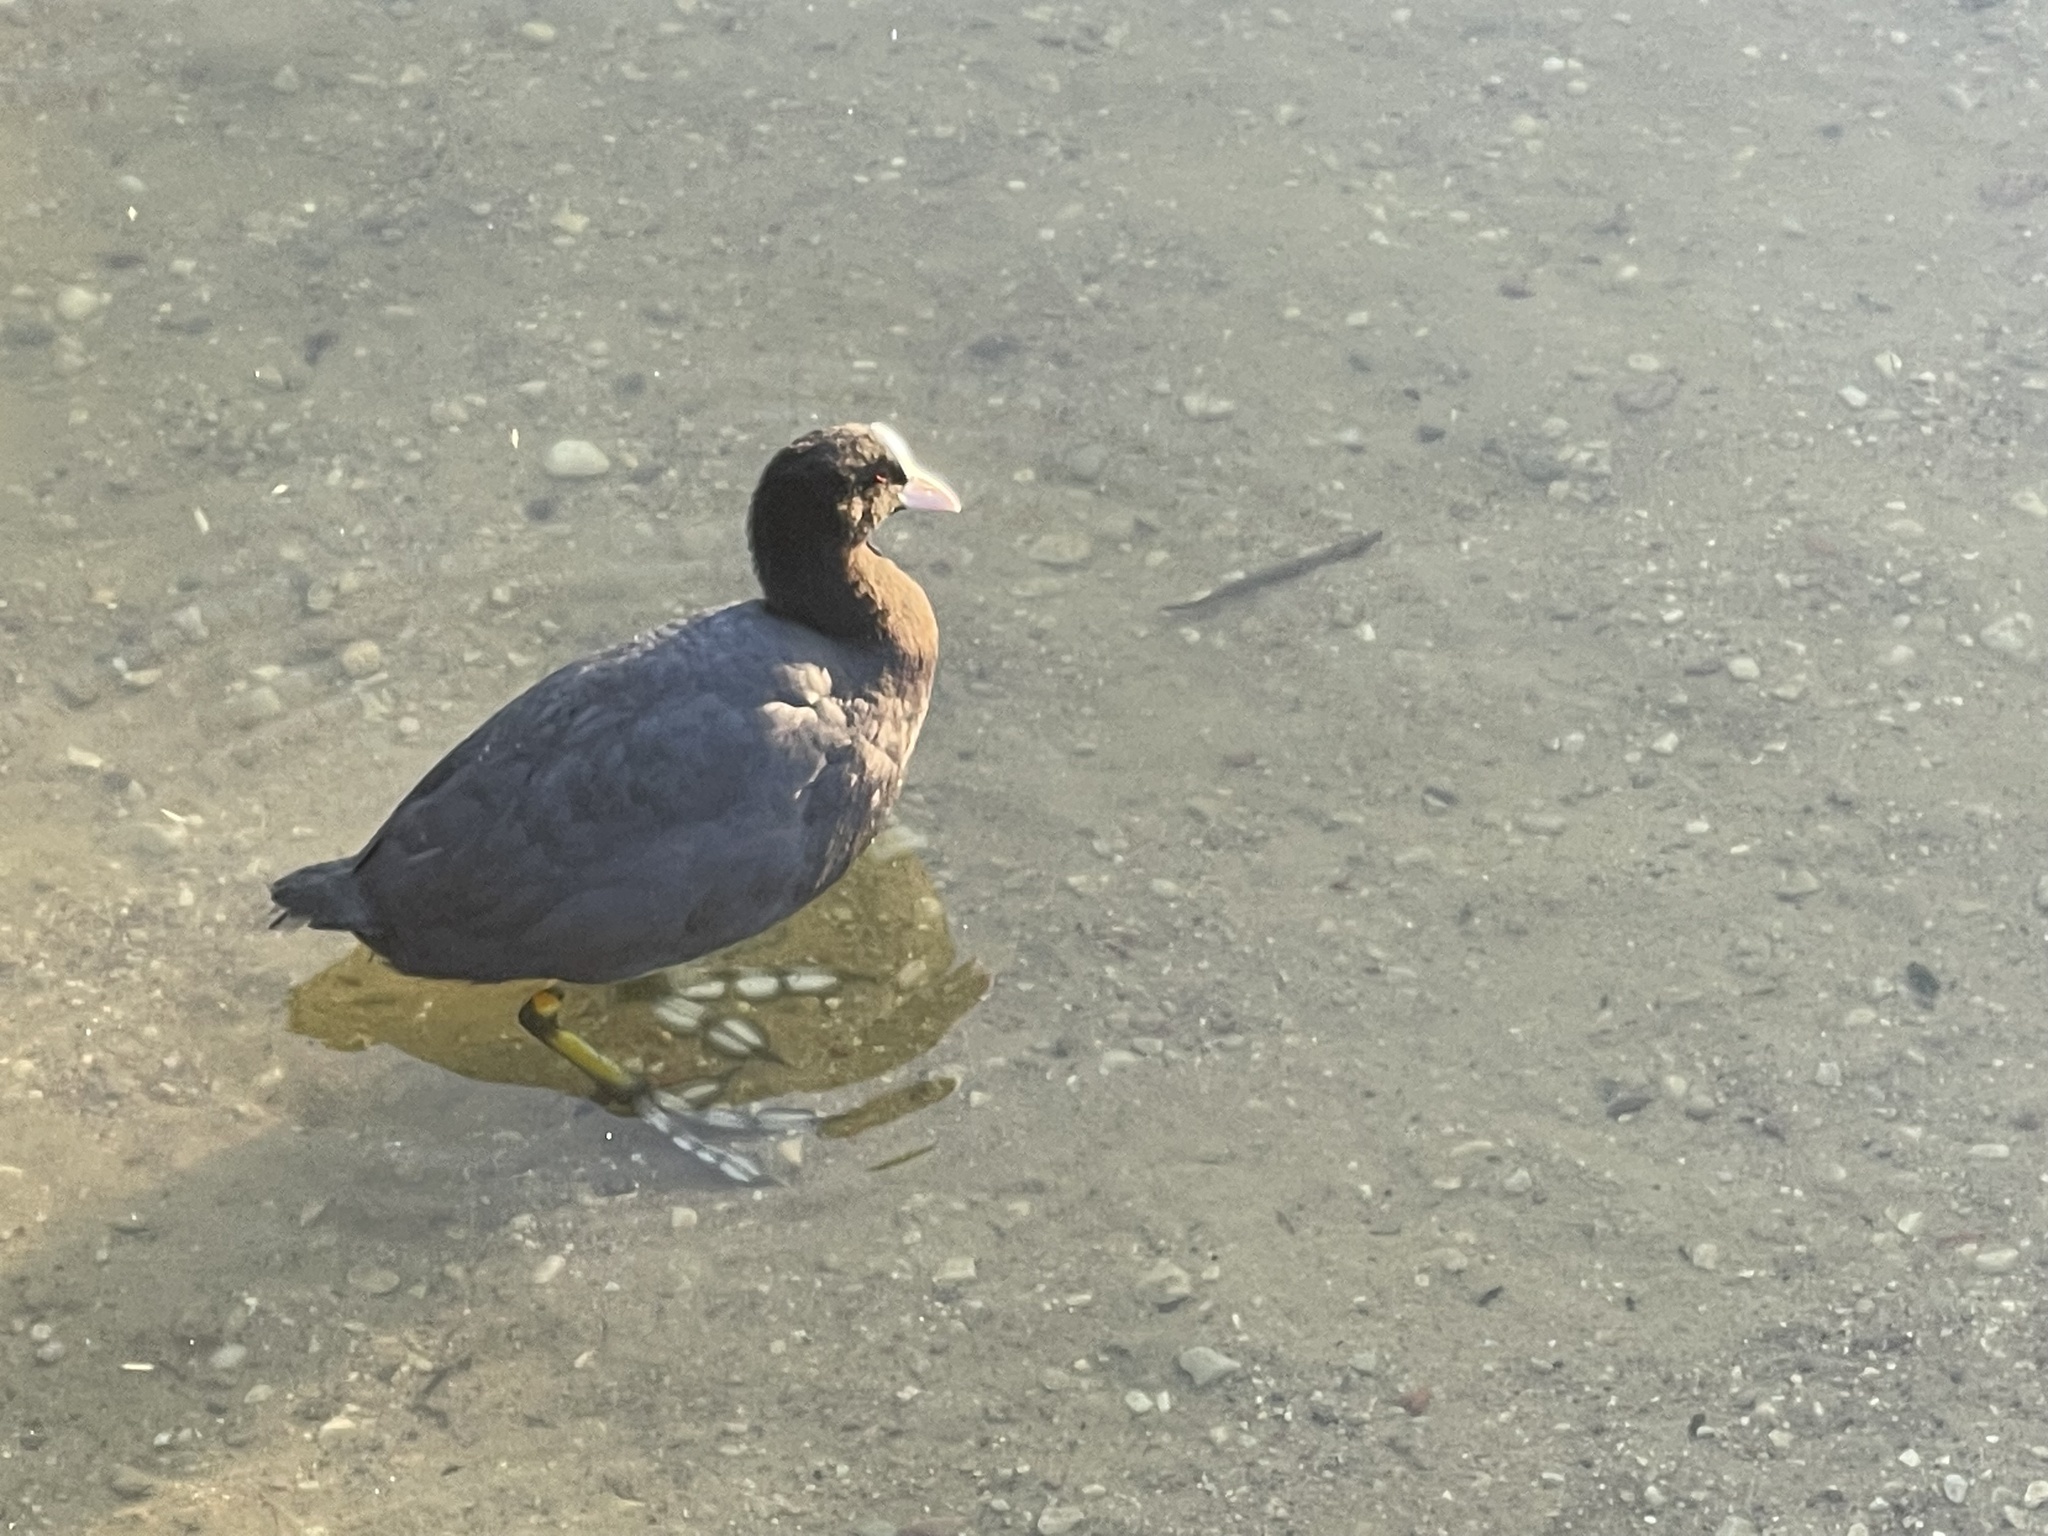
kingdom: Animalia
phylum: Chordata
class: Aves
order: Gruiformes
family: Rallidae
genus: Fulica
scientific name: Fulica atra
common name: Eurasian coot
